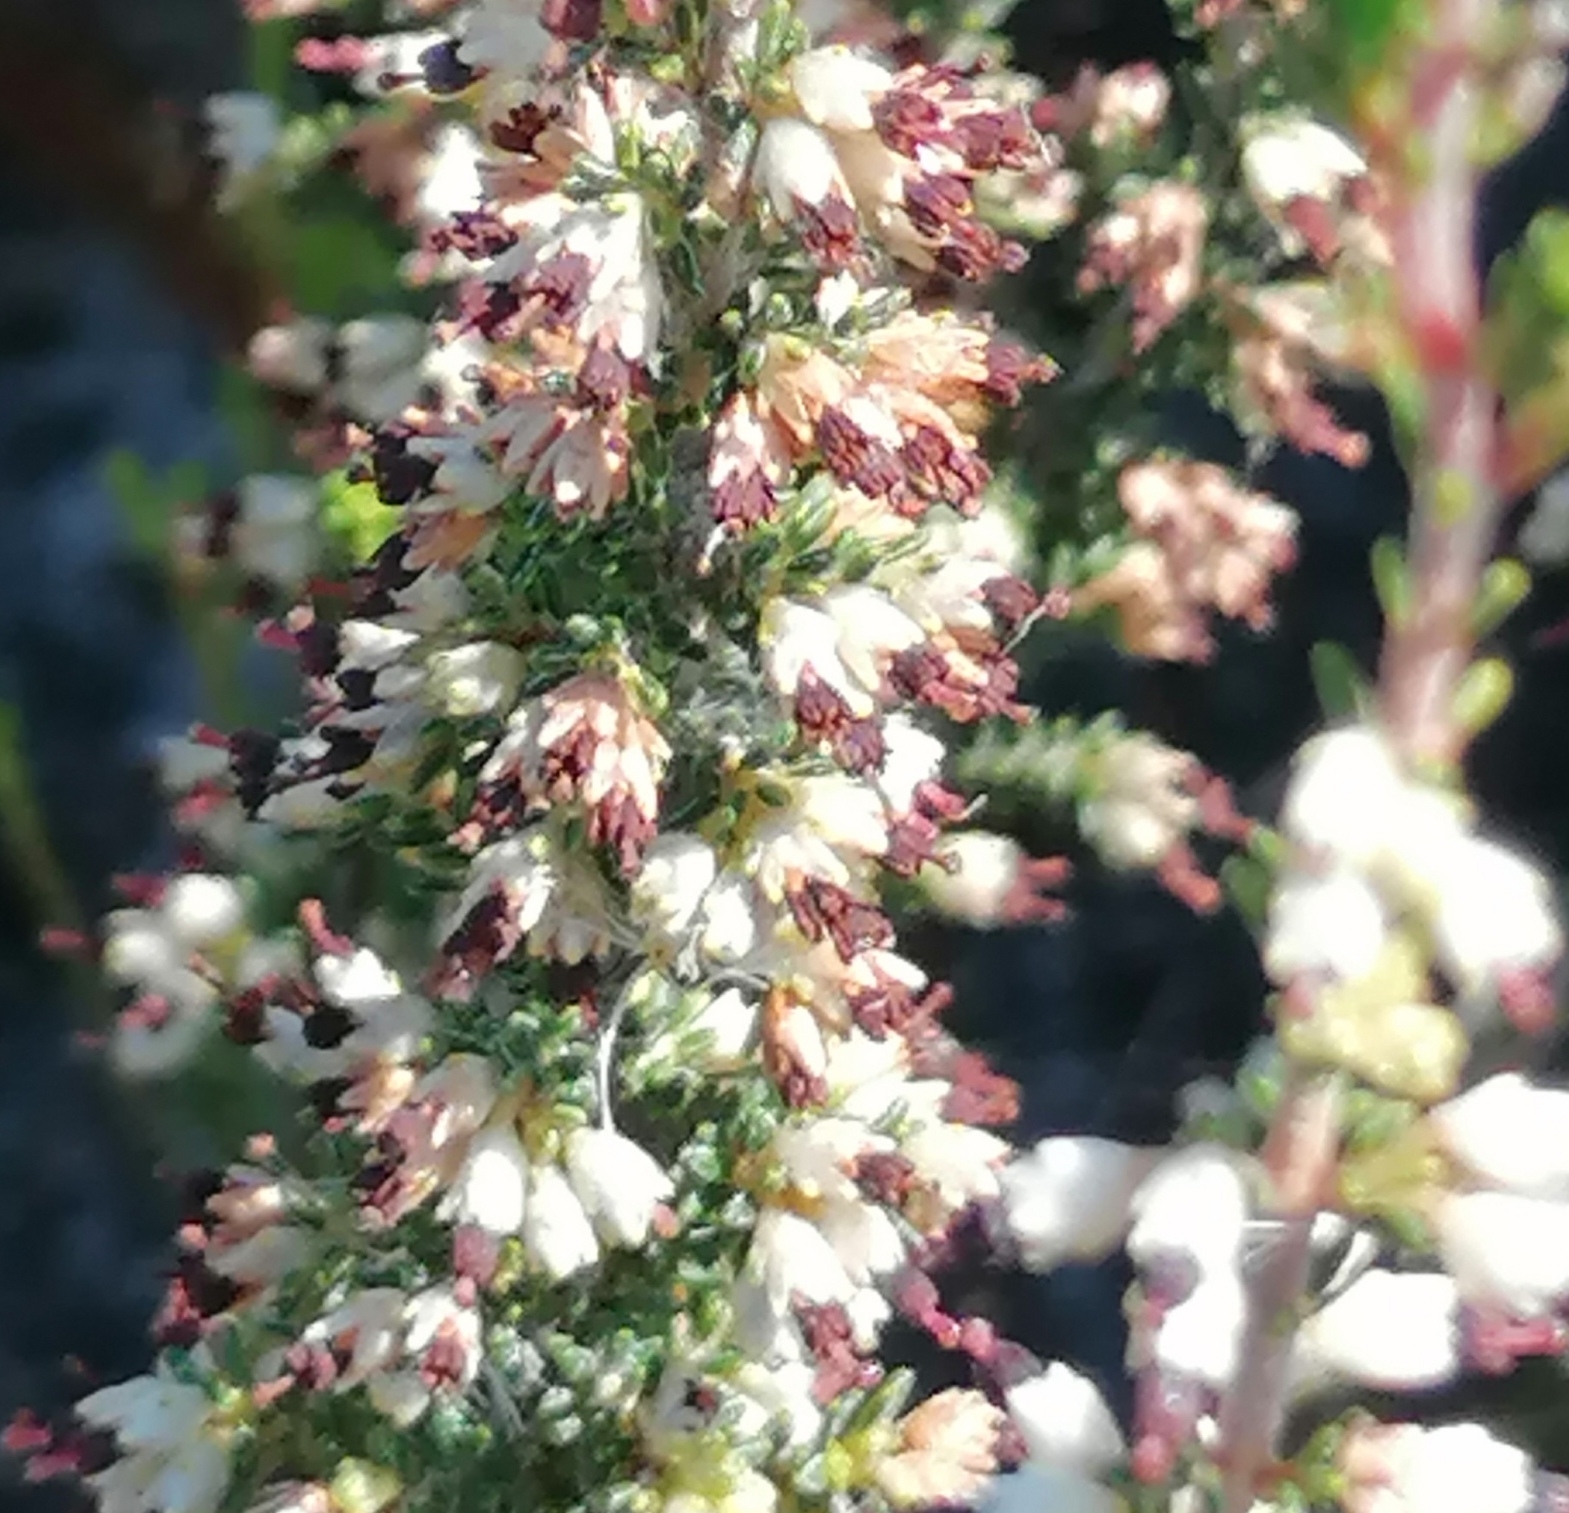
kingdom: Plantae
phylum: Tracheophyta
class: Magnoliopsida
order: Ericales
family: Ericaceae
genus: Erica
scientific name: Erica lasciva
